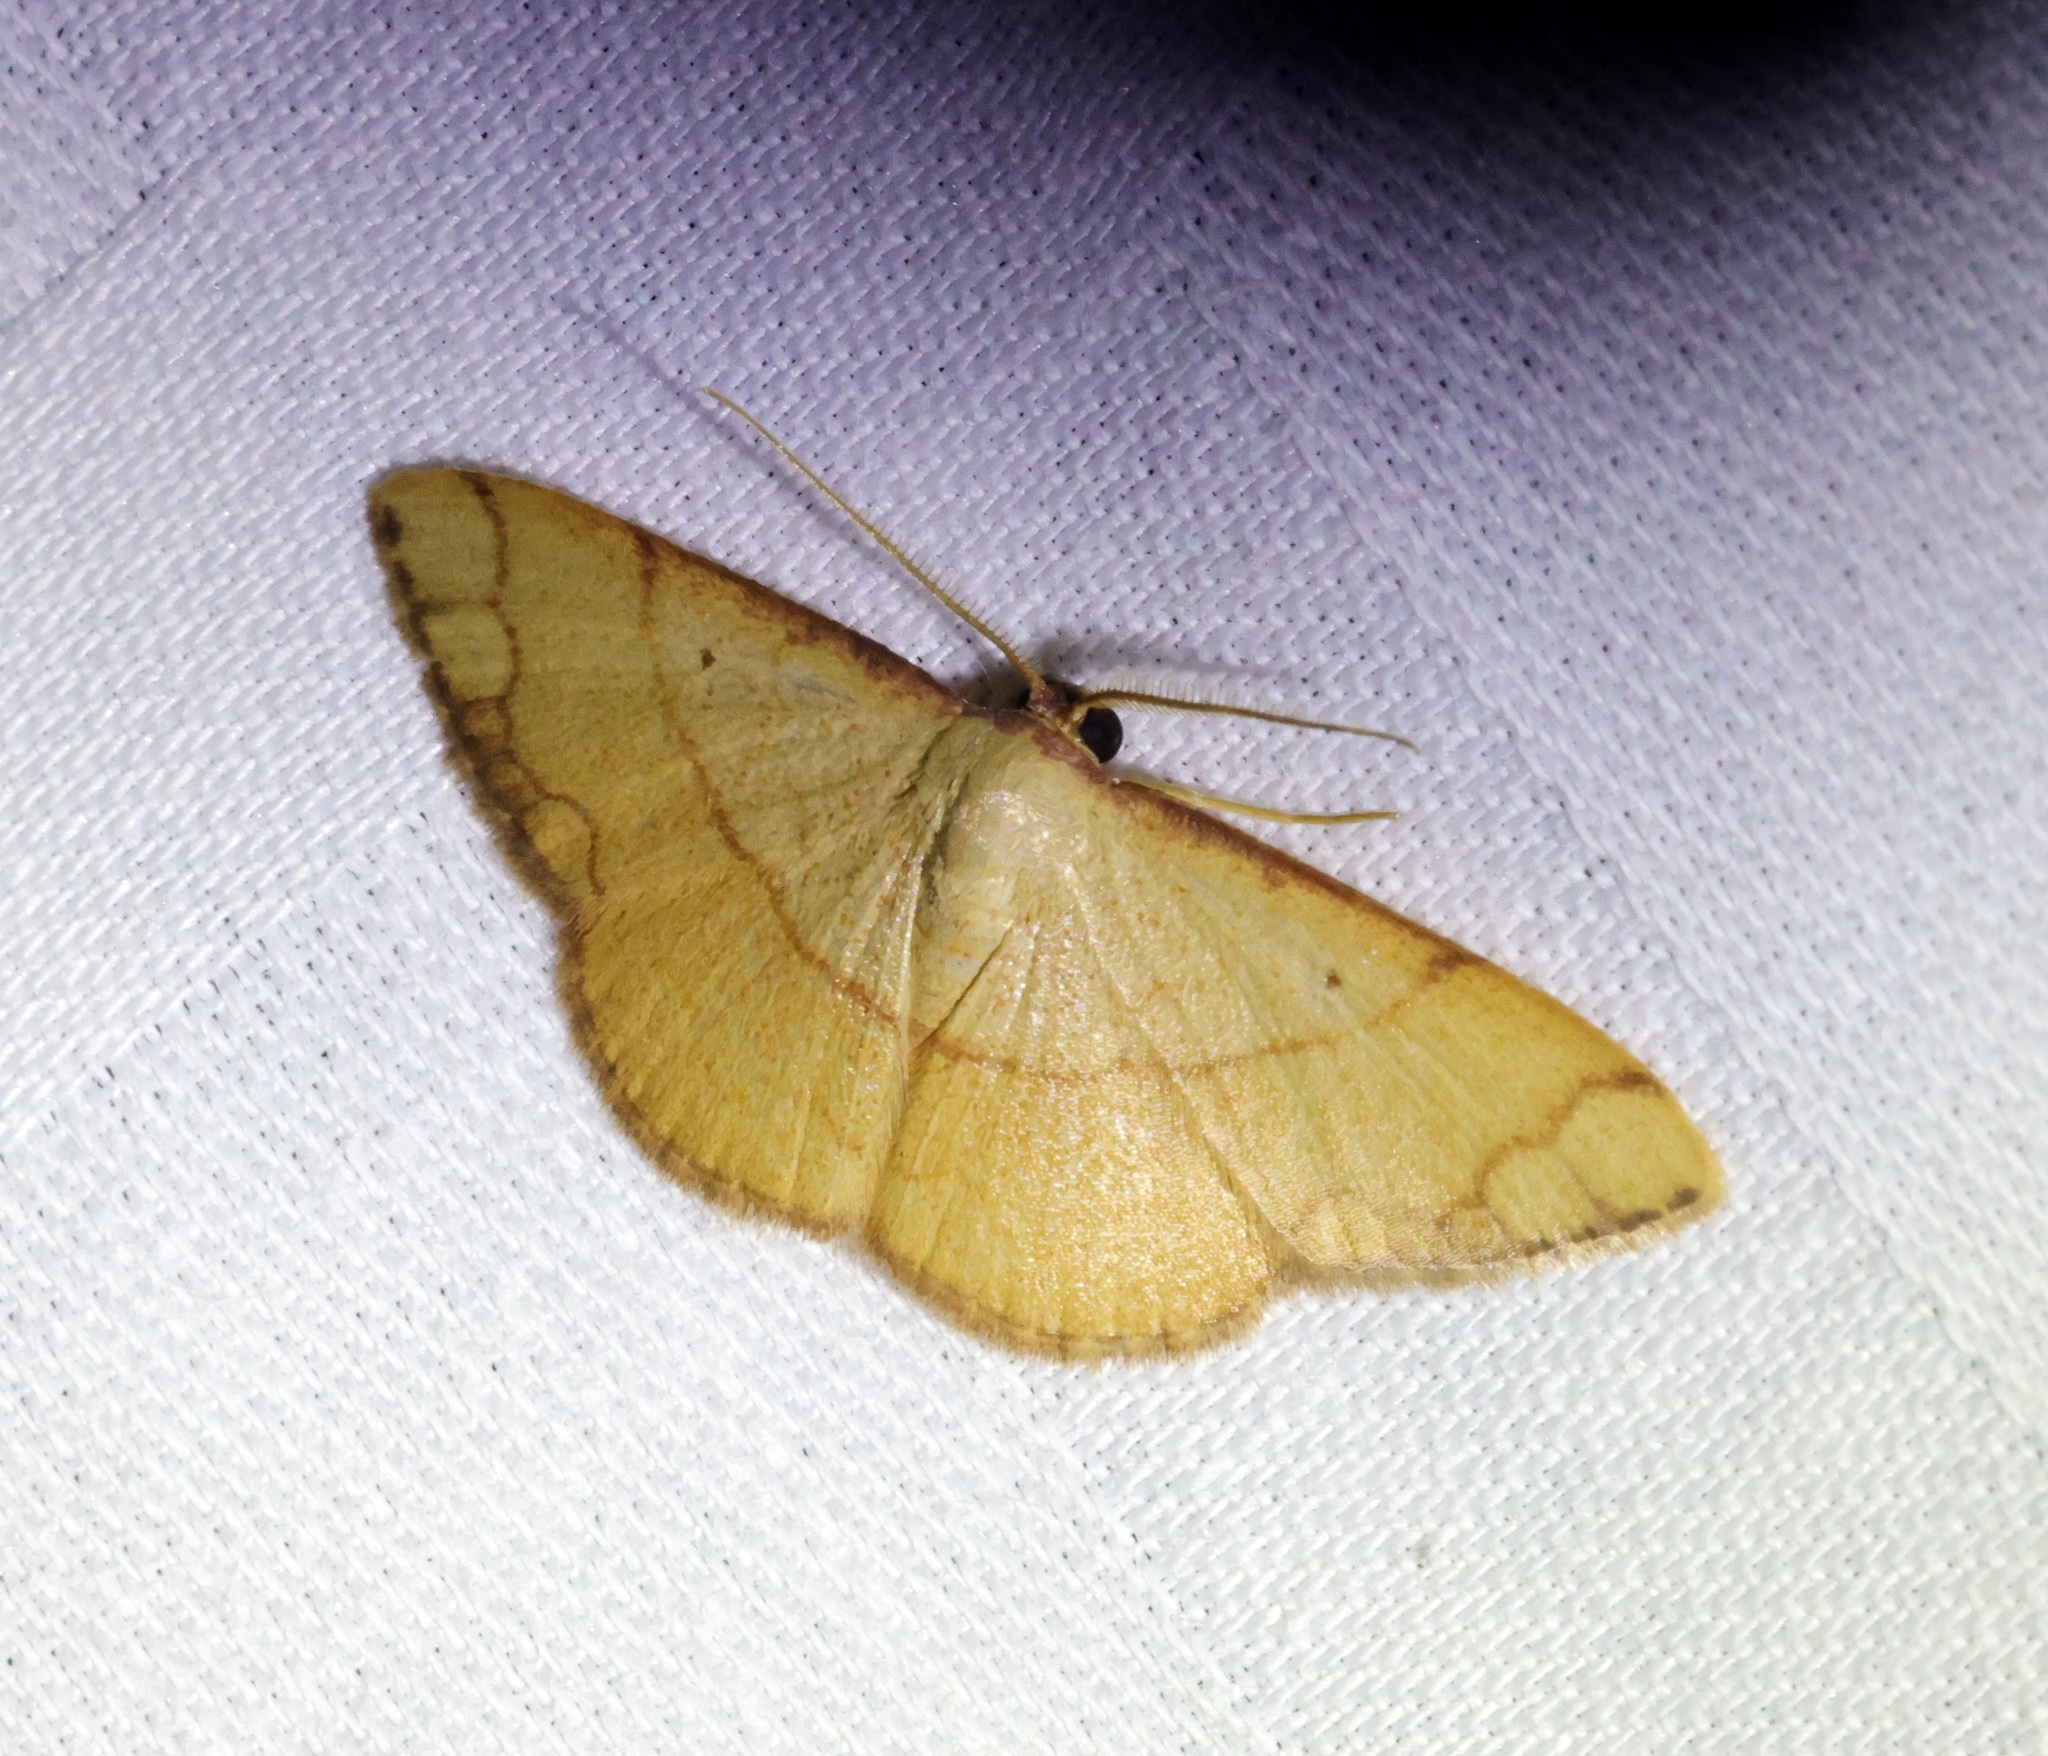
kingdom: Animalia
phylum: Arthropoda
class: Insecta
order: Lepidoptera
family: Geometridae
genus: Pylargosceles
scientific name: Pylargosceles steganioides
